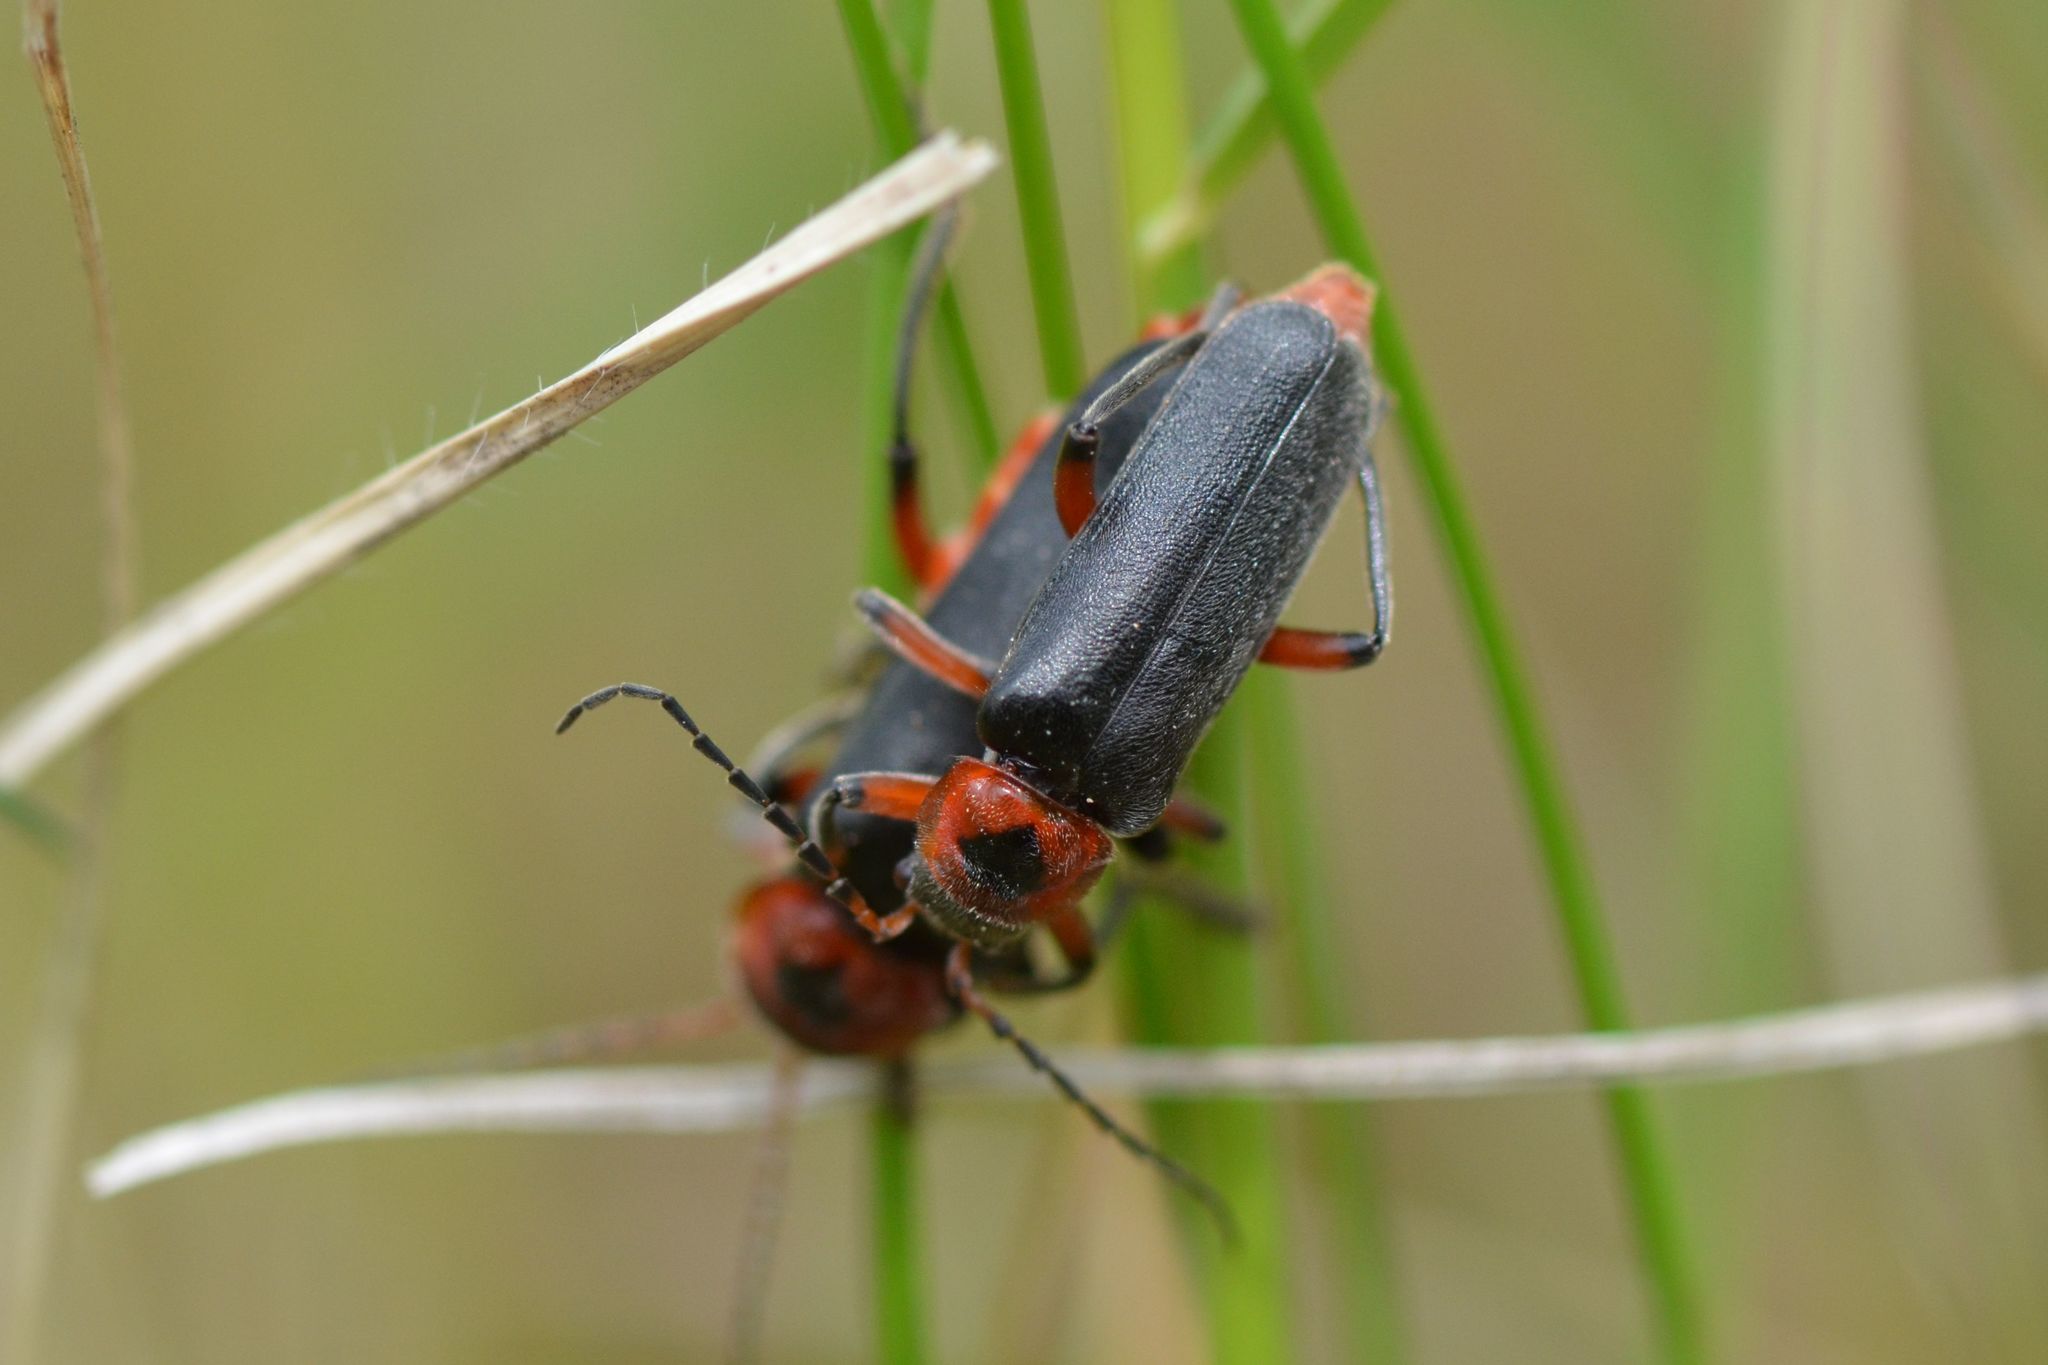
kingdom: Animalia
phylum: Arthropoda
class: Insecta
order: Coleoptera
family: Cantharidae
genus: Cantharis
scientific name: Cantharis rustica
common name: Soldier beetle
